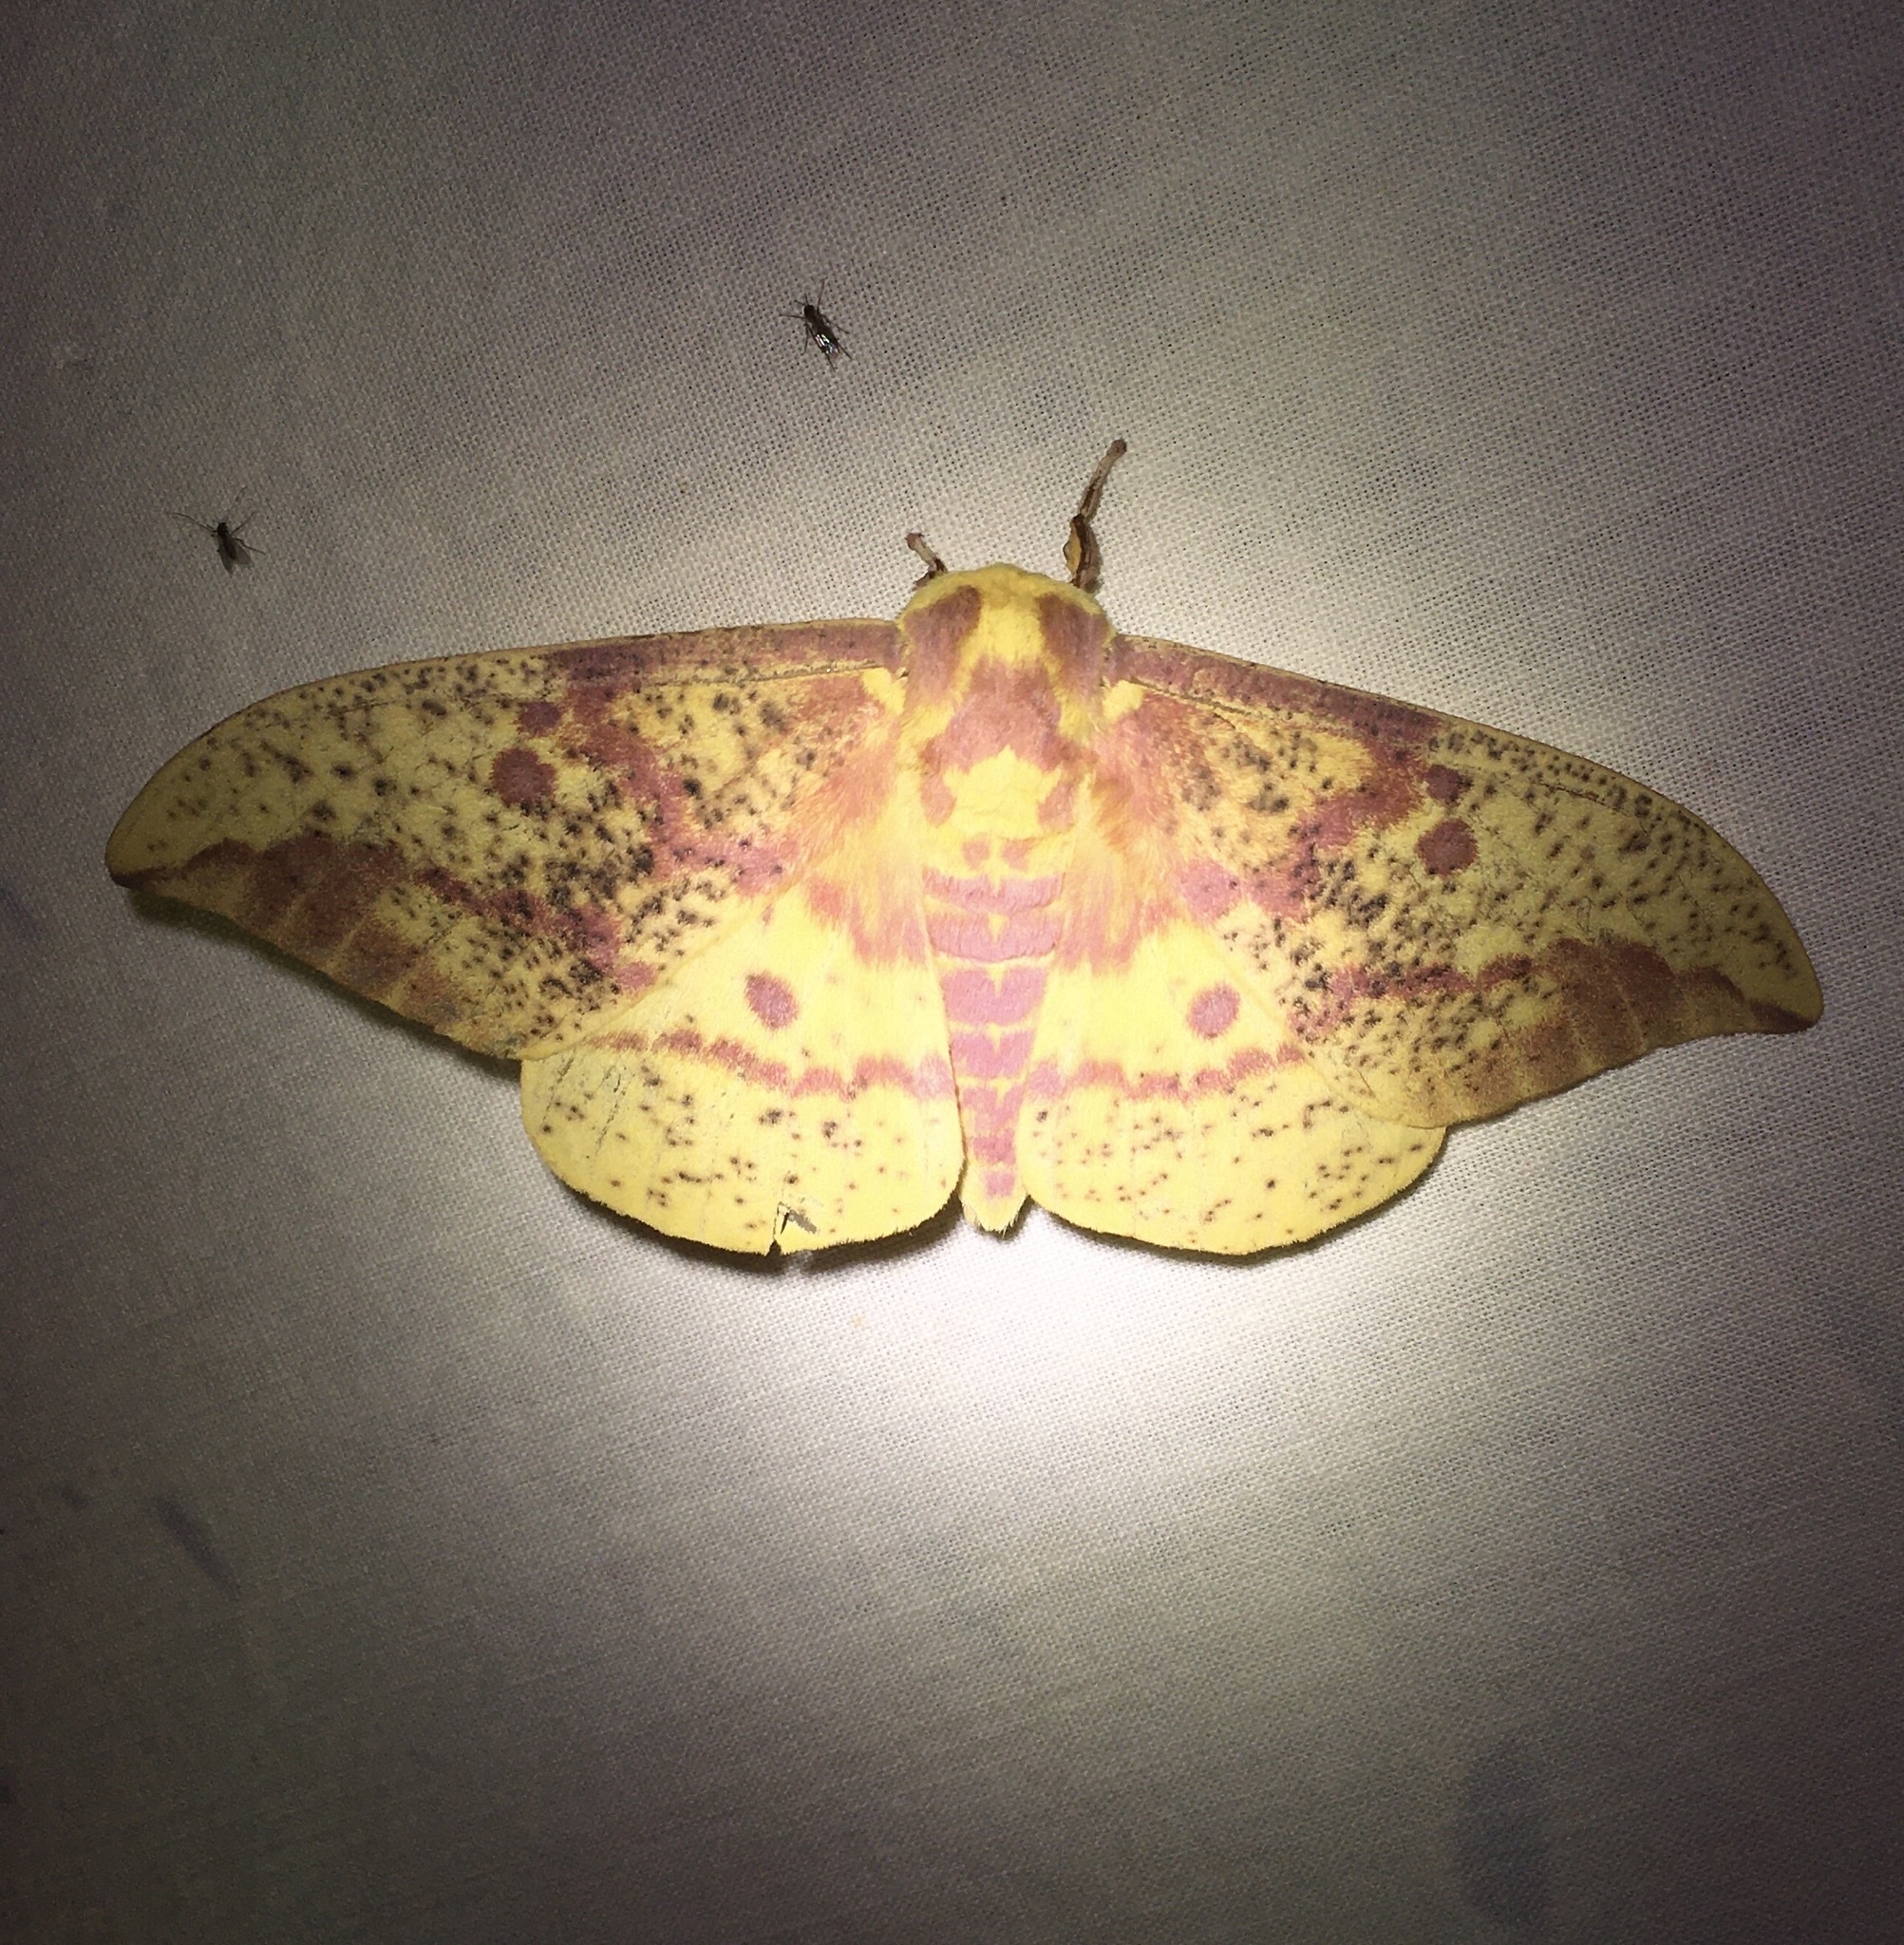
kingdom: Animalia
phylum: Arthropoda
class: Insecta
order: Lepidoptera
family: Saturniidae
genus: Eacles
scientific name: Eacles
